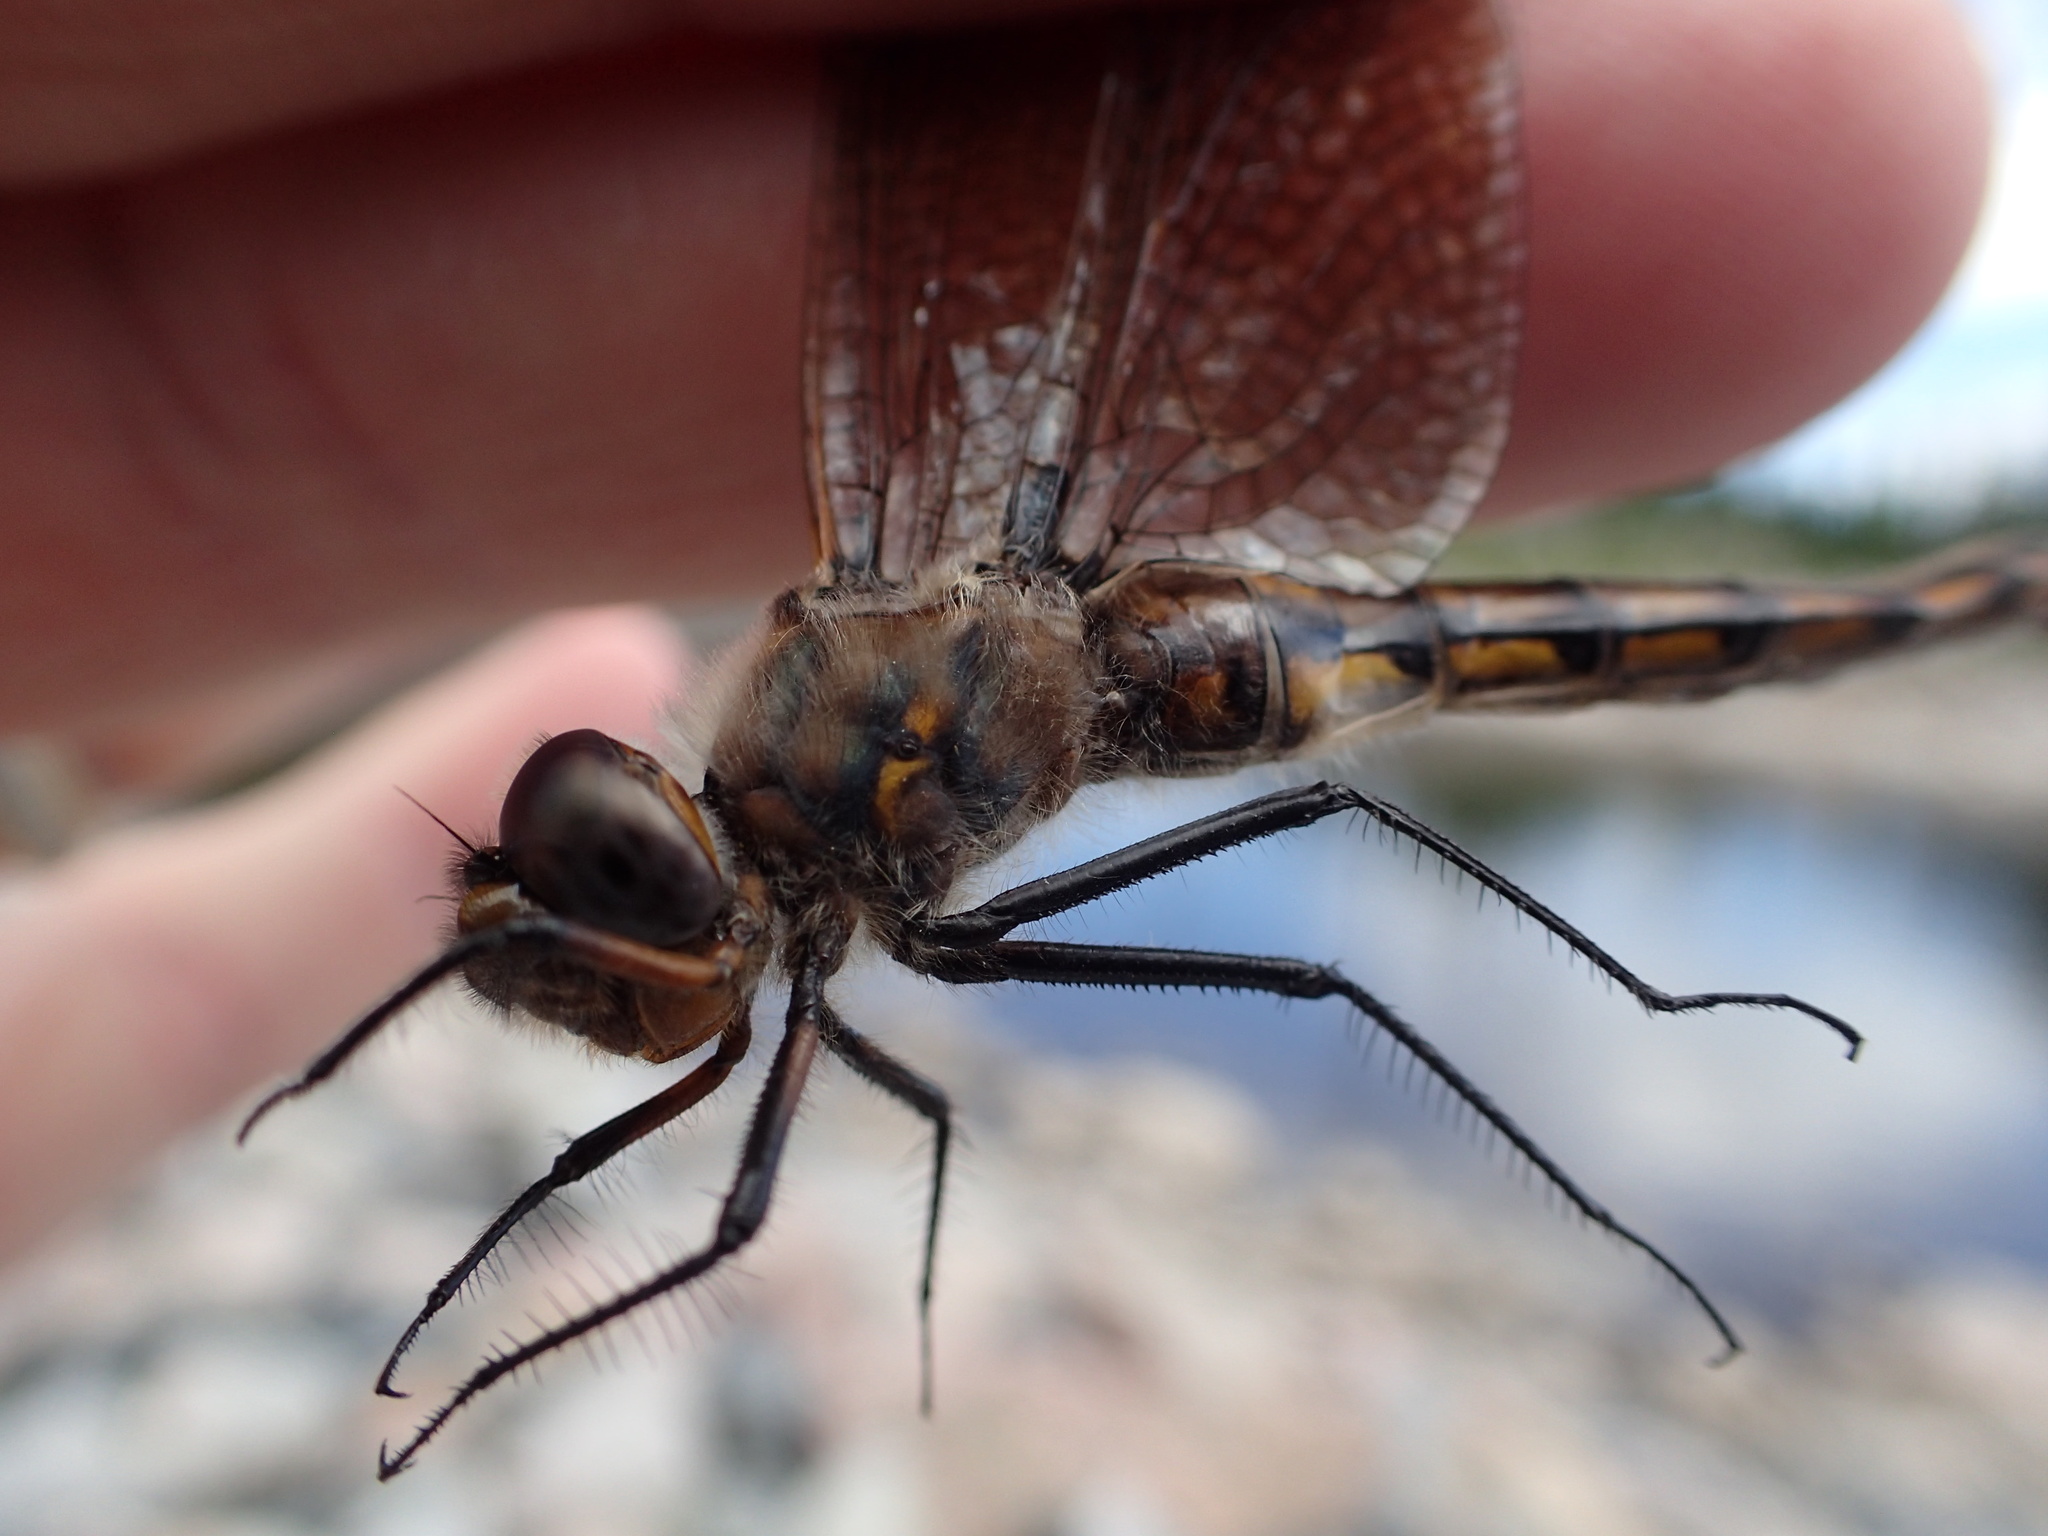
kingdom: Animalia
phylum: Arthropoda
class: Insecta
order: Odonata
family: Corduliidae
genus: Epitheca
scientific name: Epitheca canis
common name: Beaverpond baskettail
